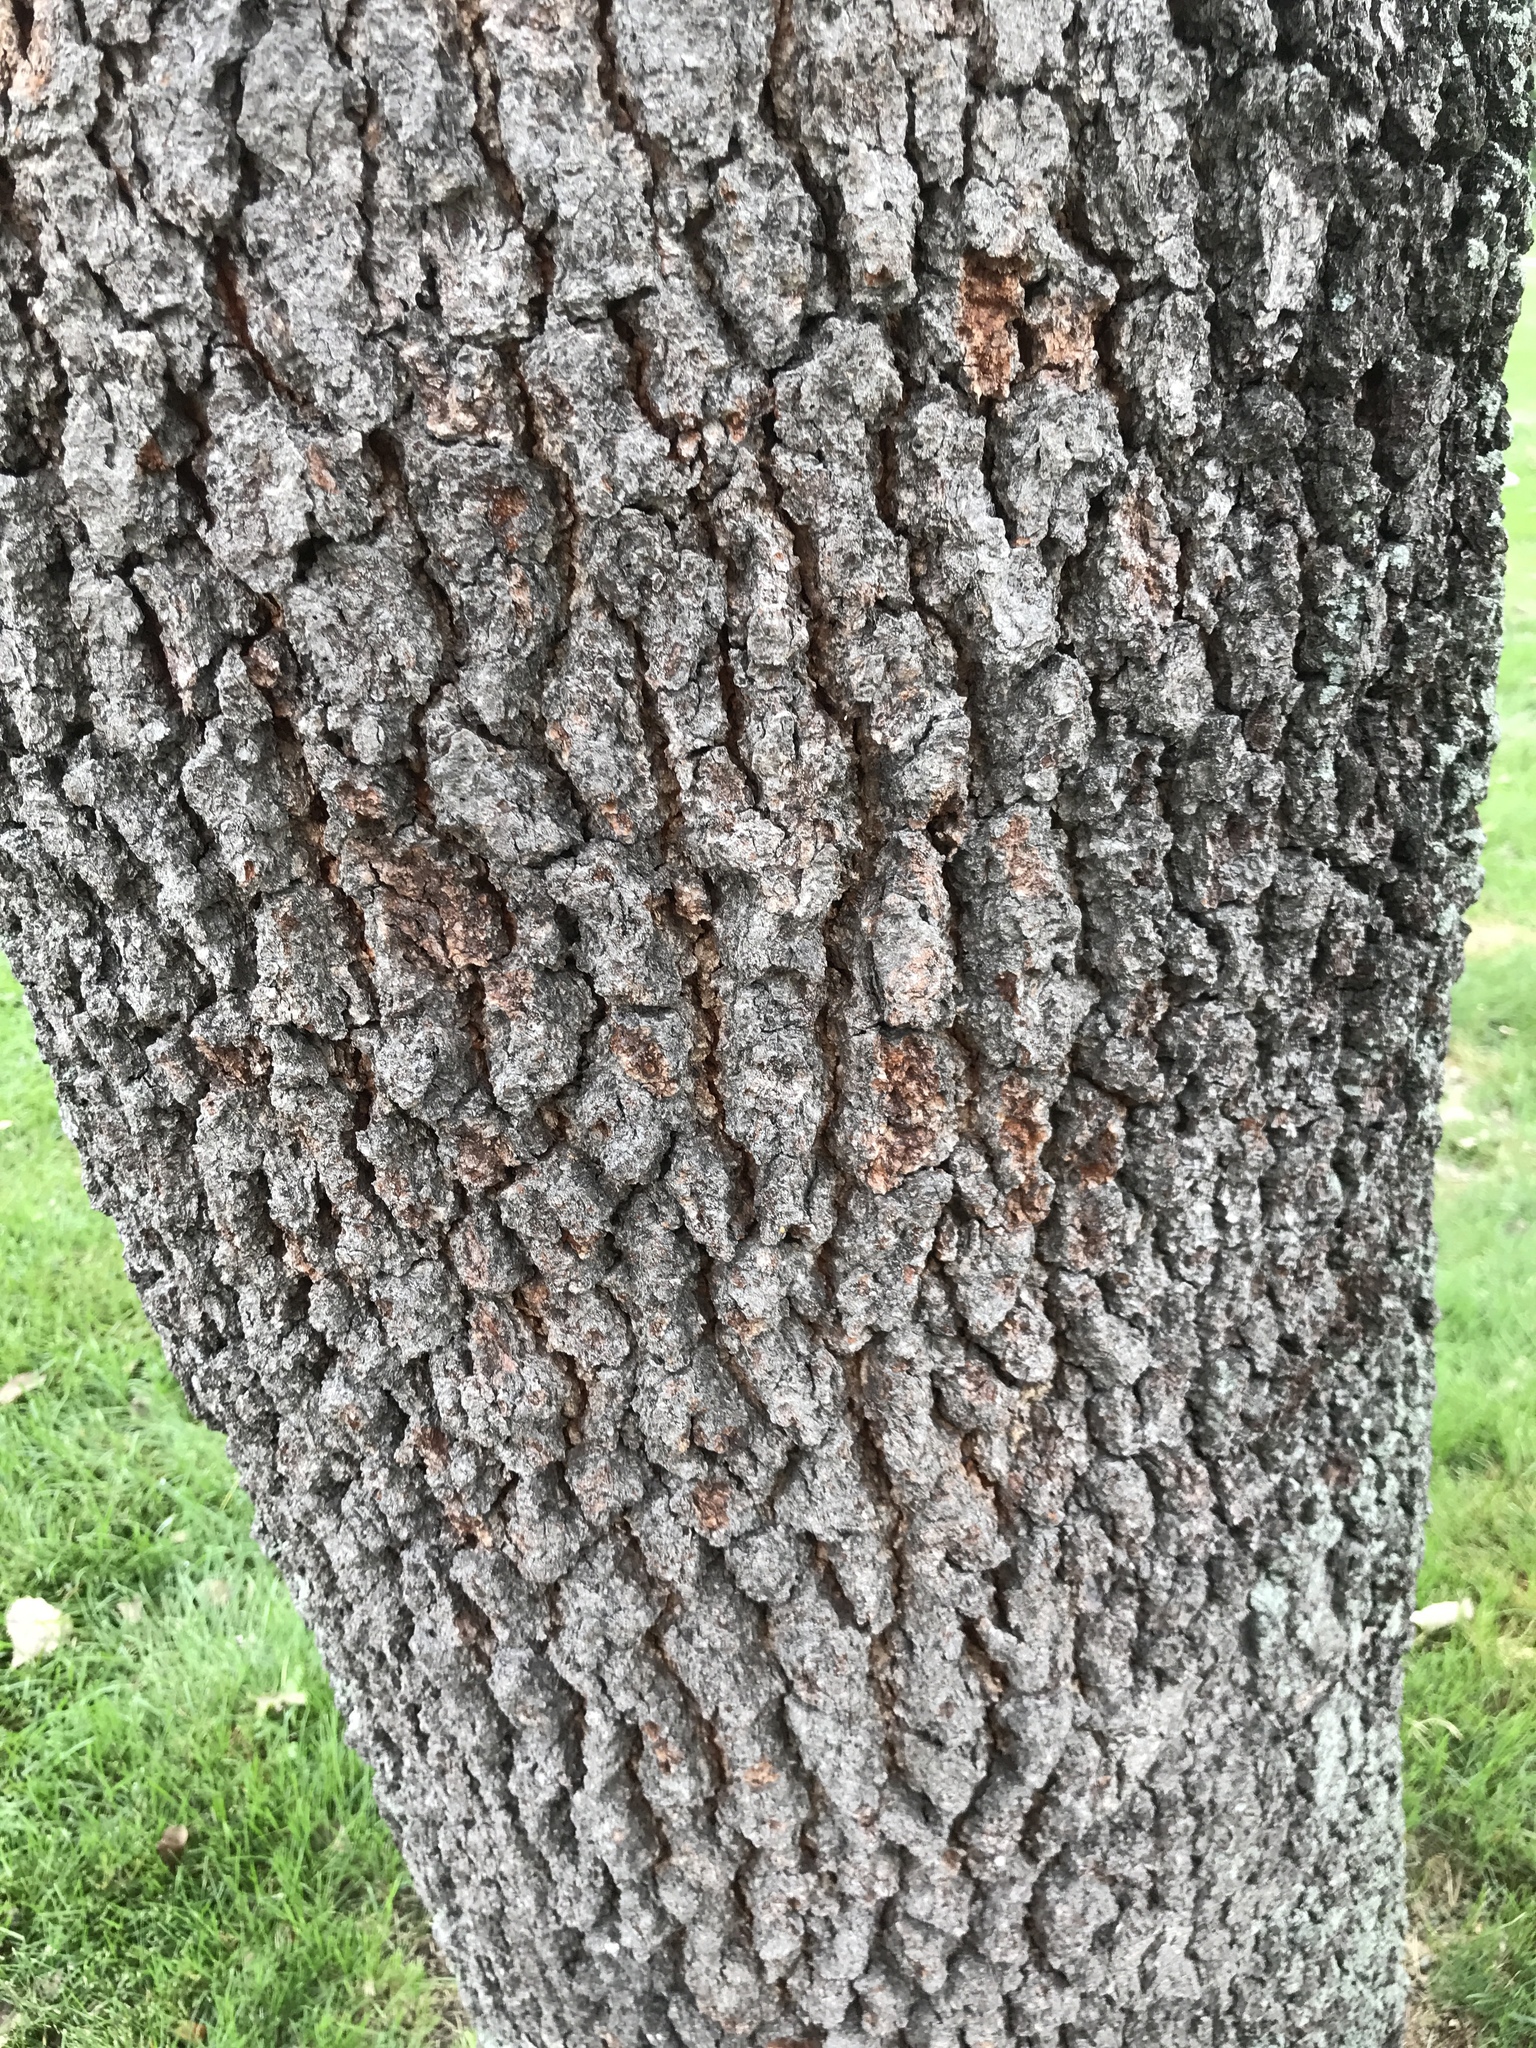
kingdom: Plantae
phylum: Tracheophyta
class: Magnoliopsida
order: Rosales
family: Rosaceae
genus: Prunus
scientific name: Prunus serotina
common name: Black cherry
